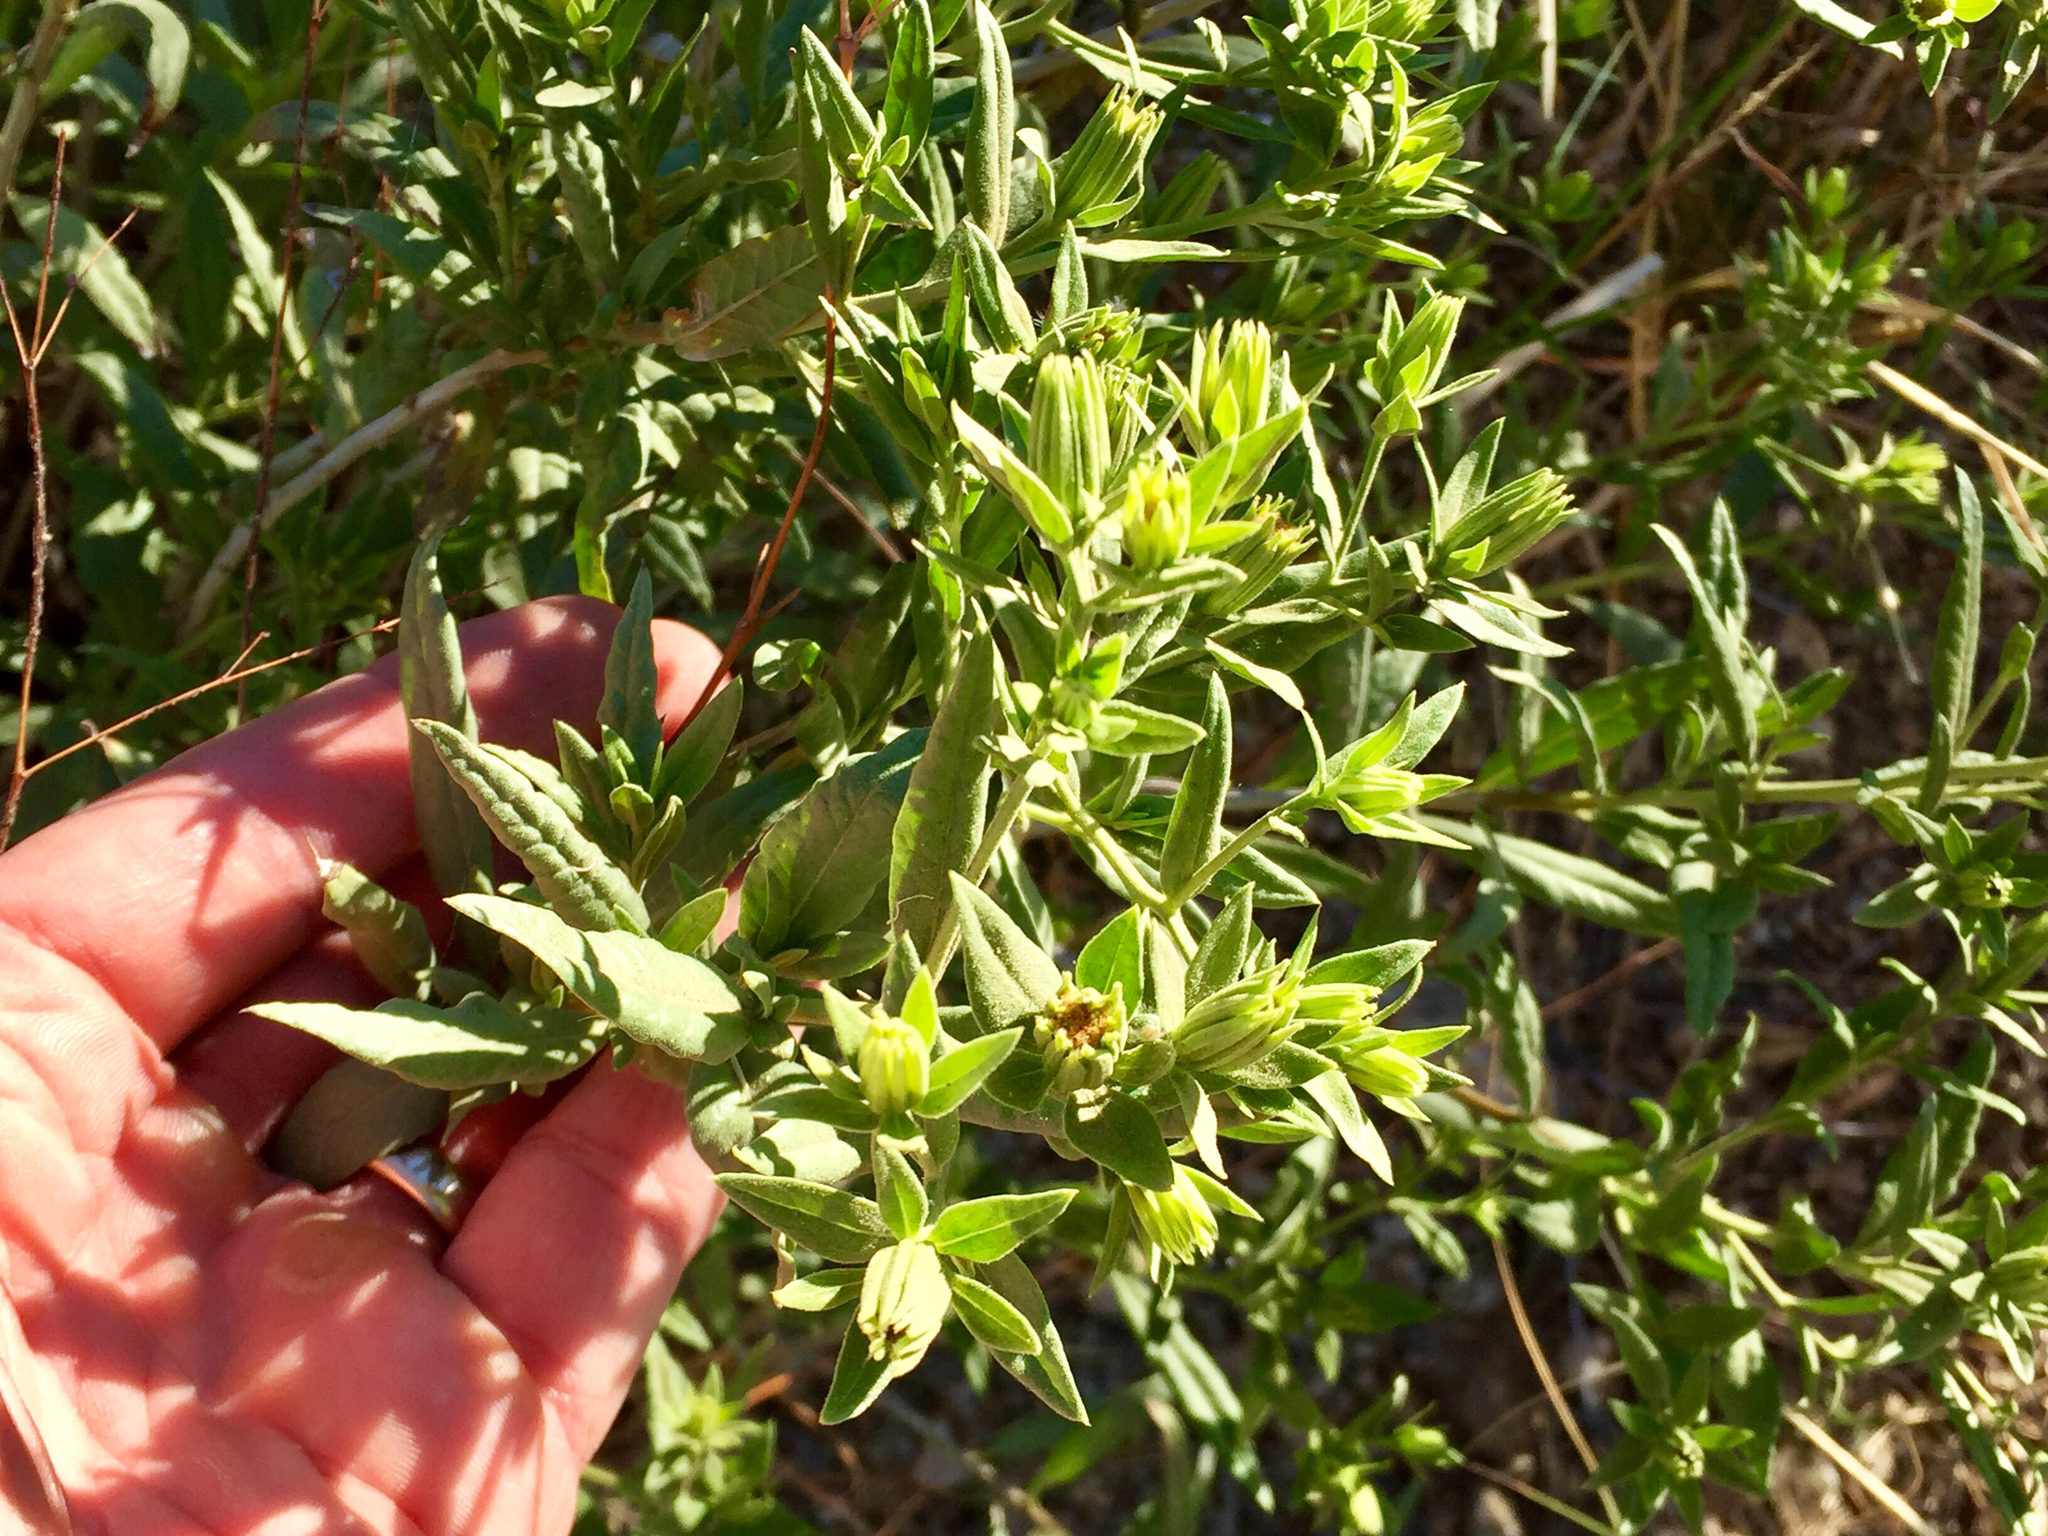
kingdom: Plantae
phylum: Tracheophyta
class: Magnoliopsida
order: Asterales
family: Asteraceae
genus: Trixis
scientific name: Trixis californica
